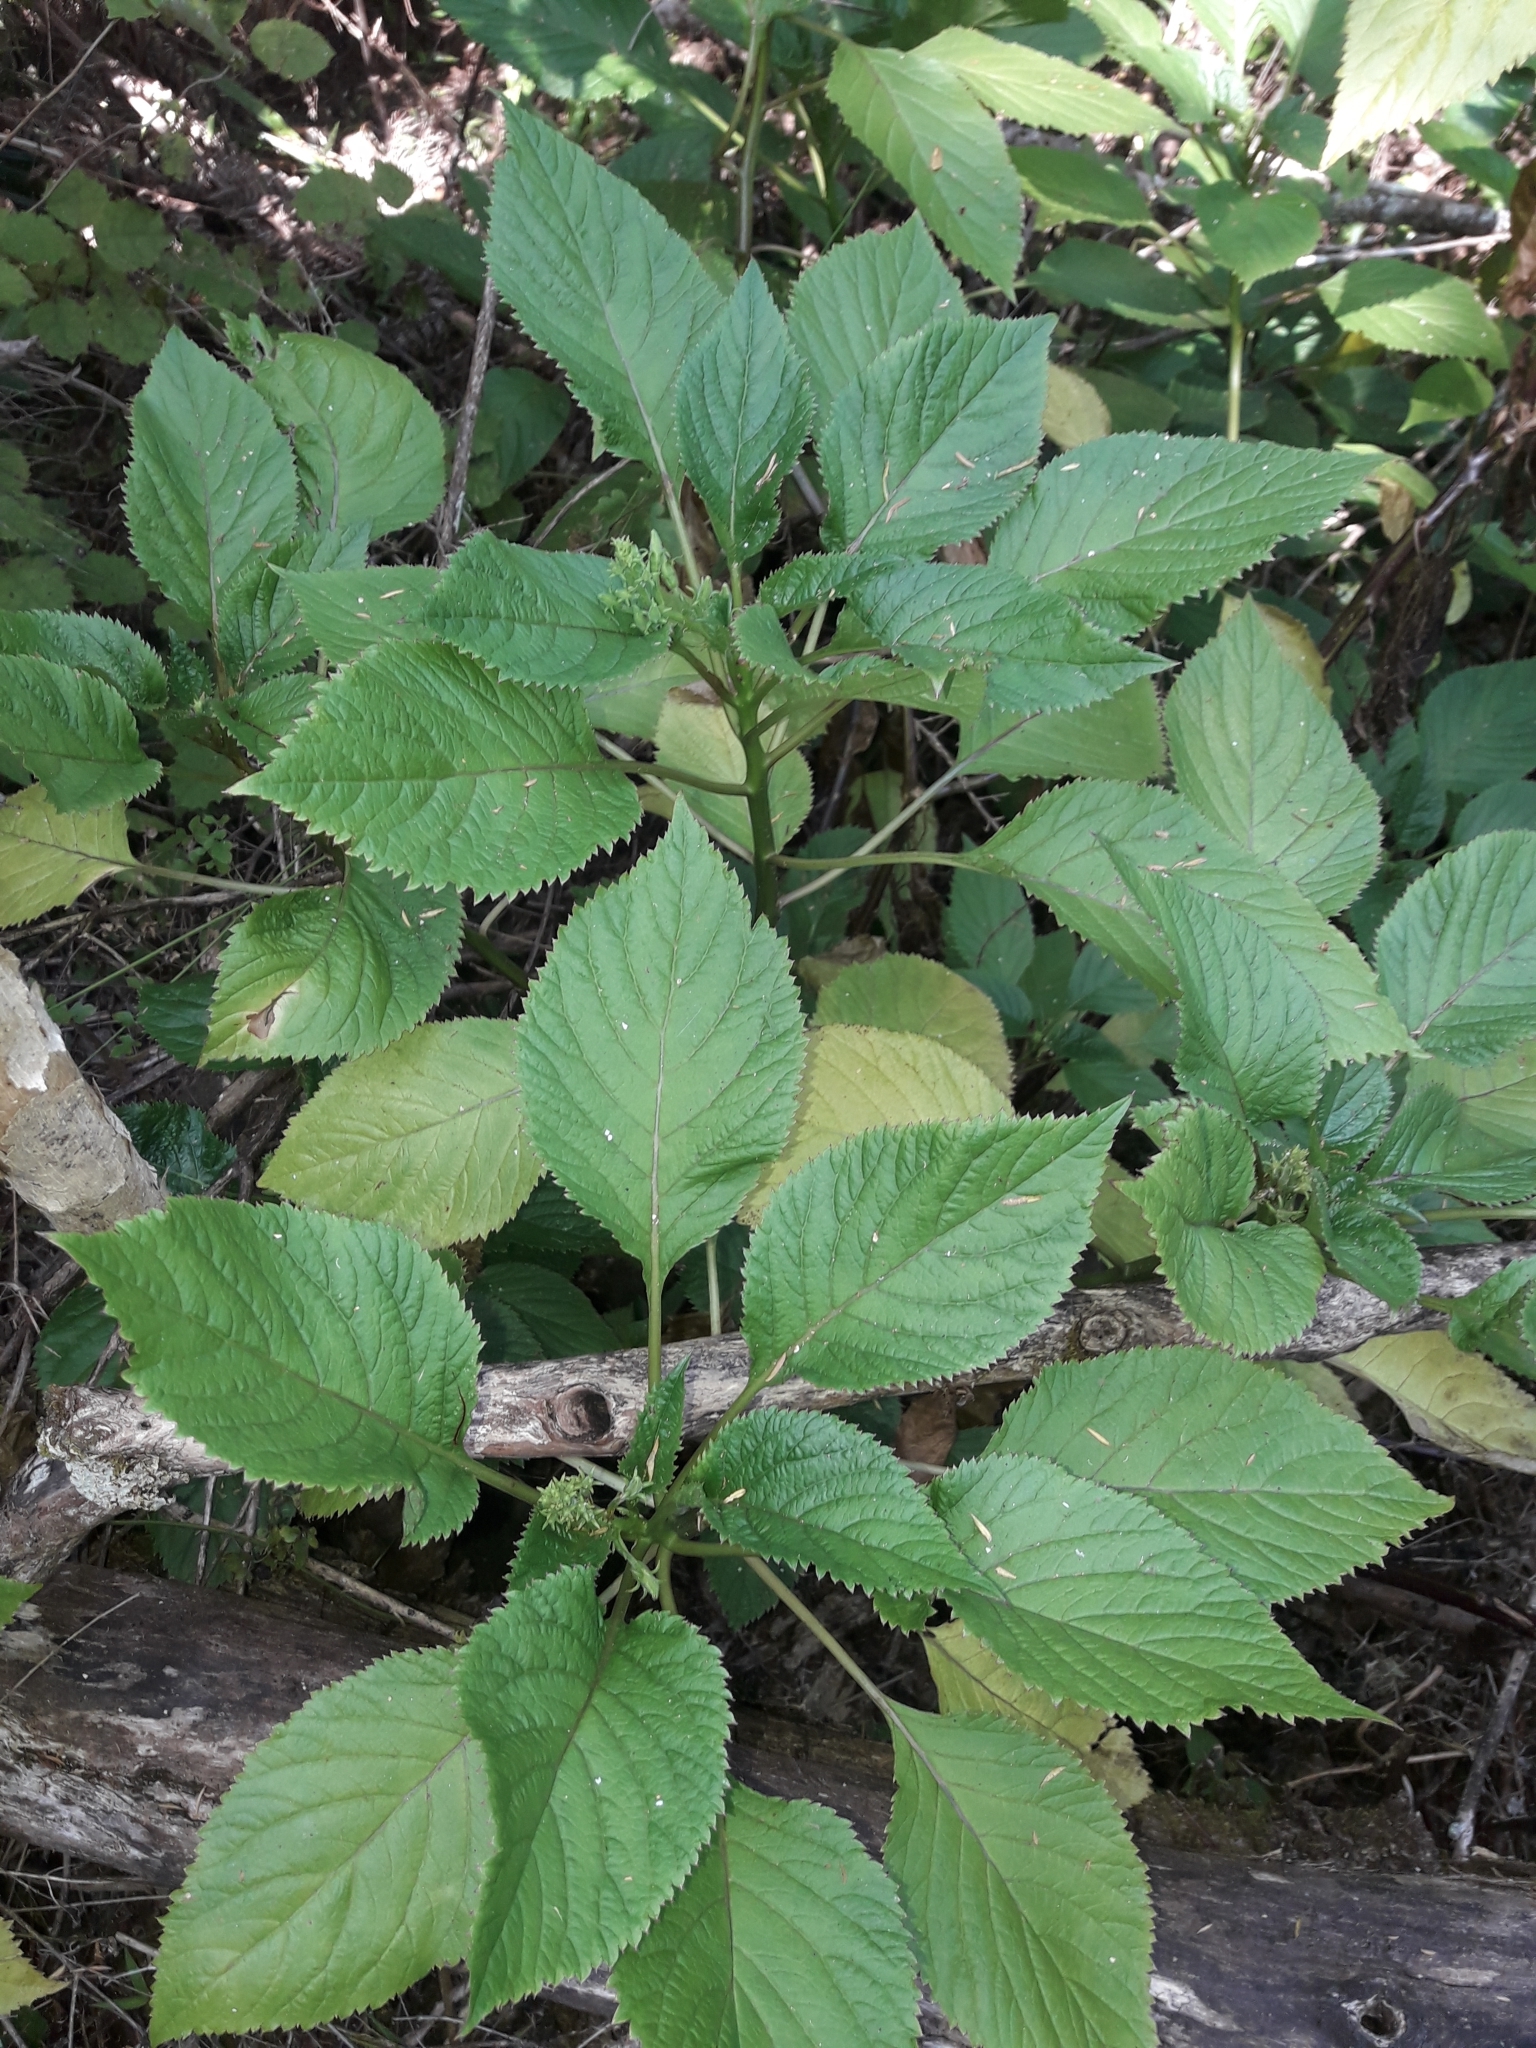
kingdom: Plantae
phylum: Tracheophyta
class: Magnoliopsida
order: Asterales
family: Campanulaceae
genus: Lobelia
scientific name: Lobelia physaloides
